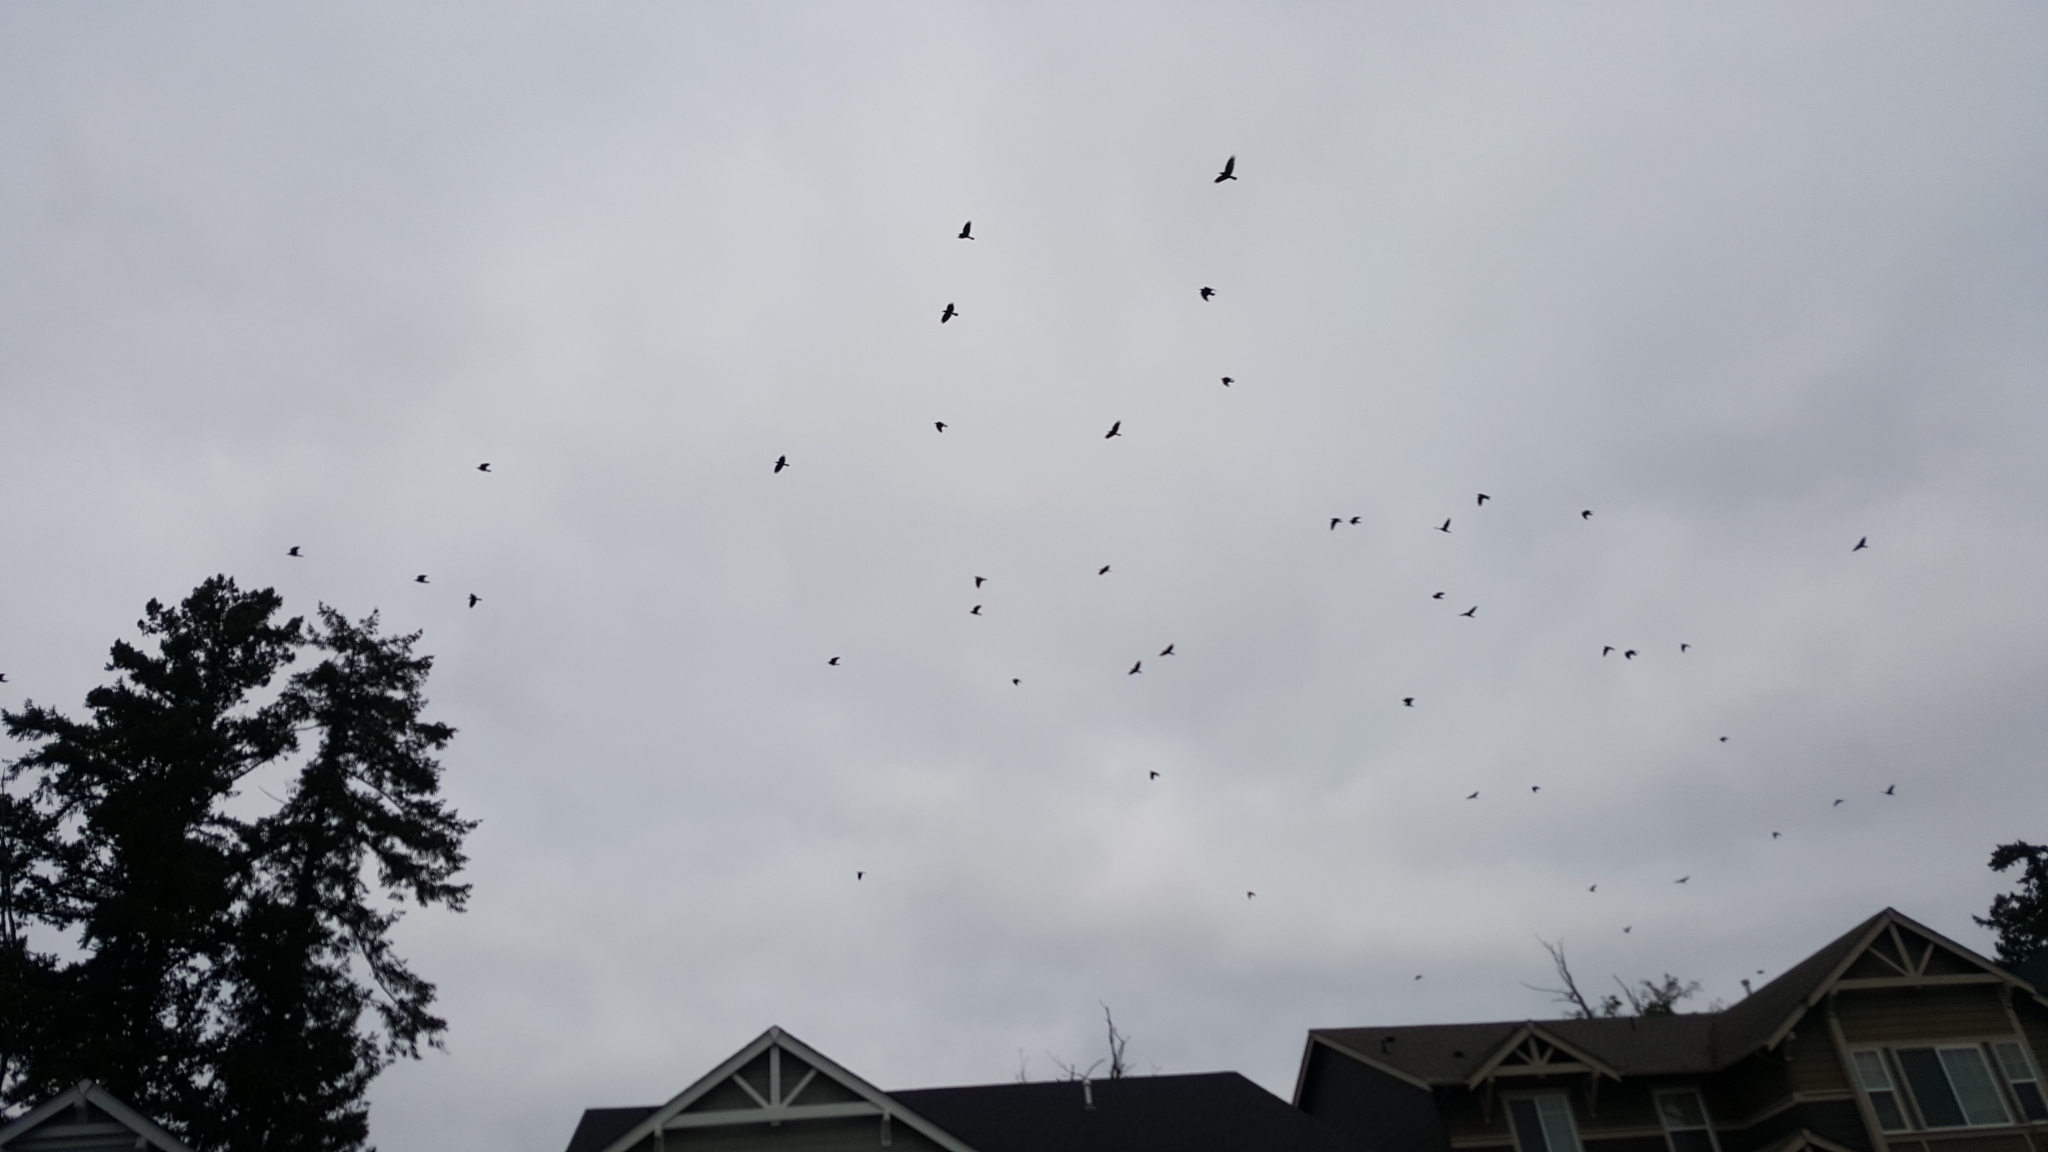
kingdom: Animalia
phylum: Chordata
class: Aves
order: Passeriformes
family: Corvidae
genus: Corvus
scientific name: Corvus brachyrhynchos
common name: American crow
